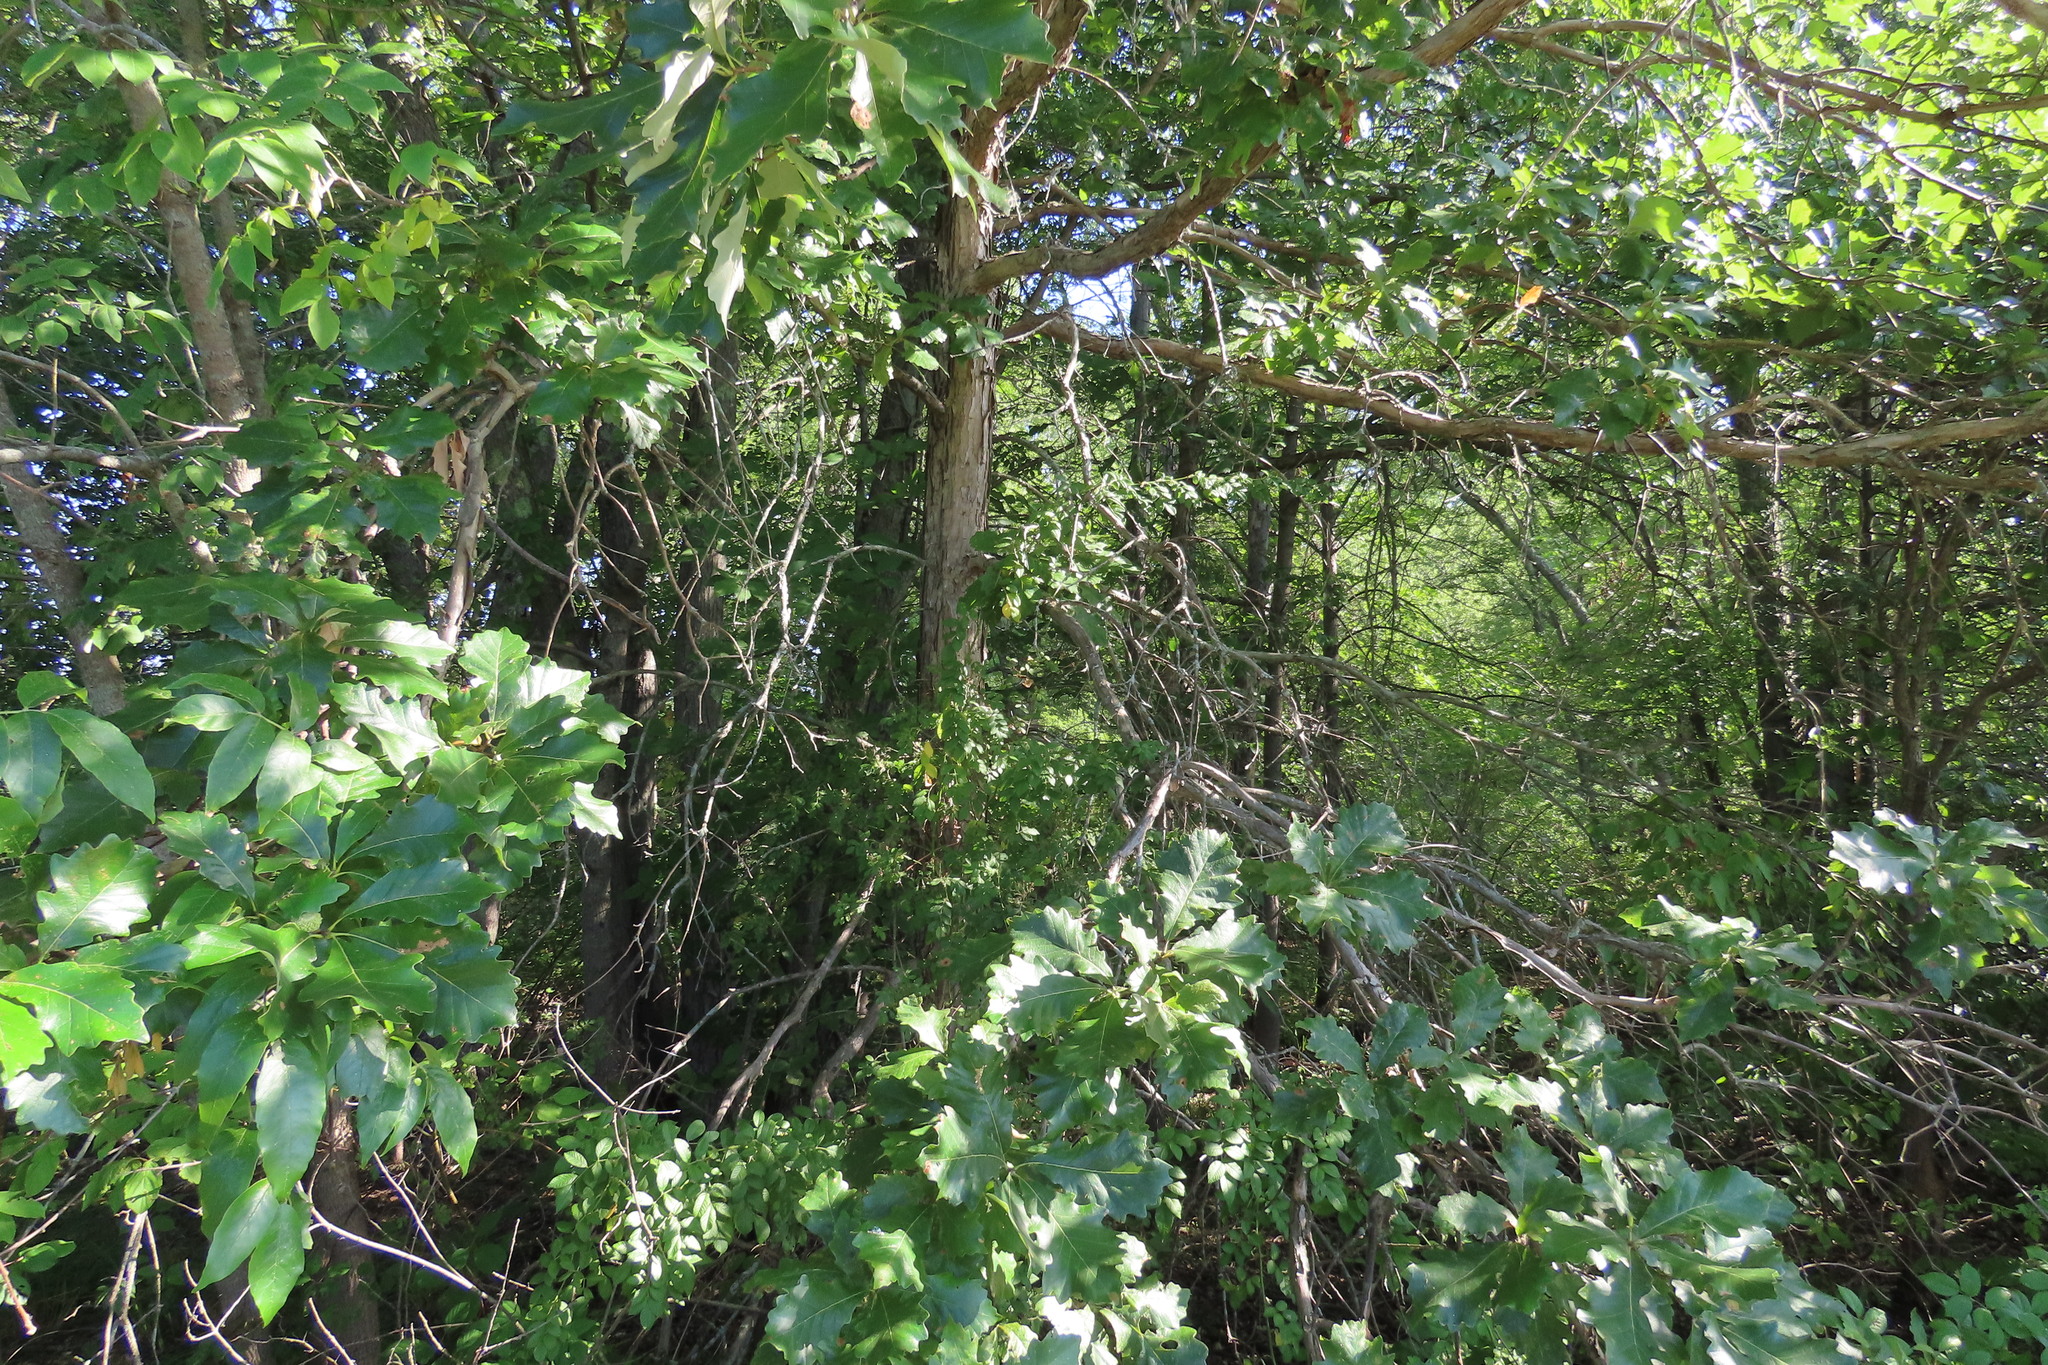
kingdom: Plantae
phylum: Tracheophyta
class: Magnoliopsida
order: Fagales
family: Fagaceae
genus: Quercus
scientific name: Quercus bicolor
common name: Swamp white oak
